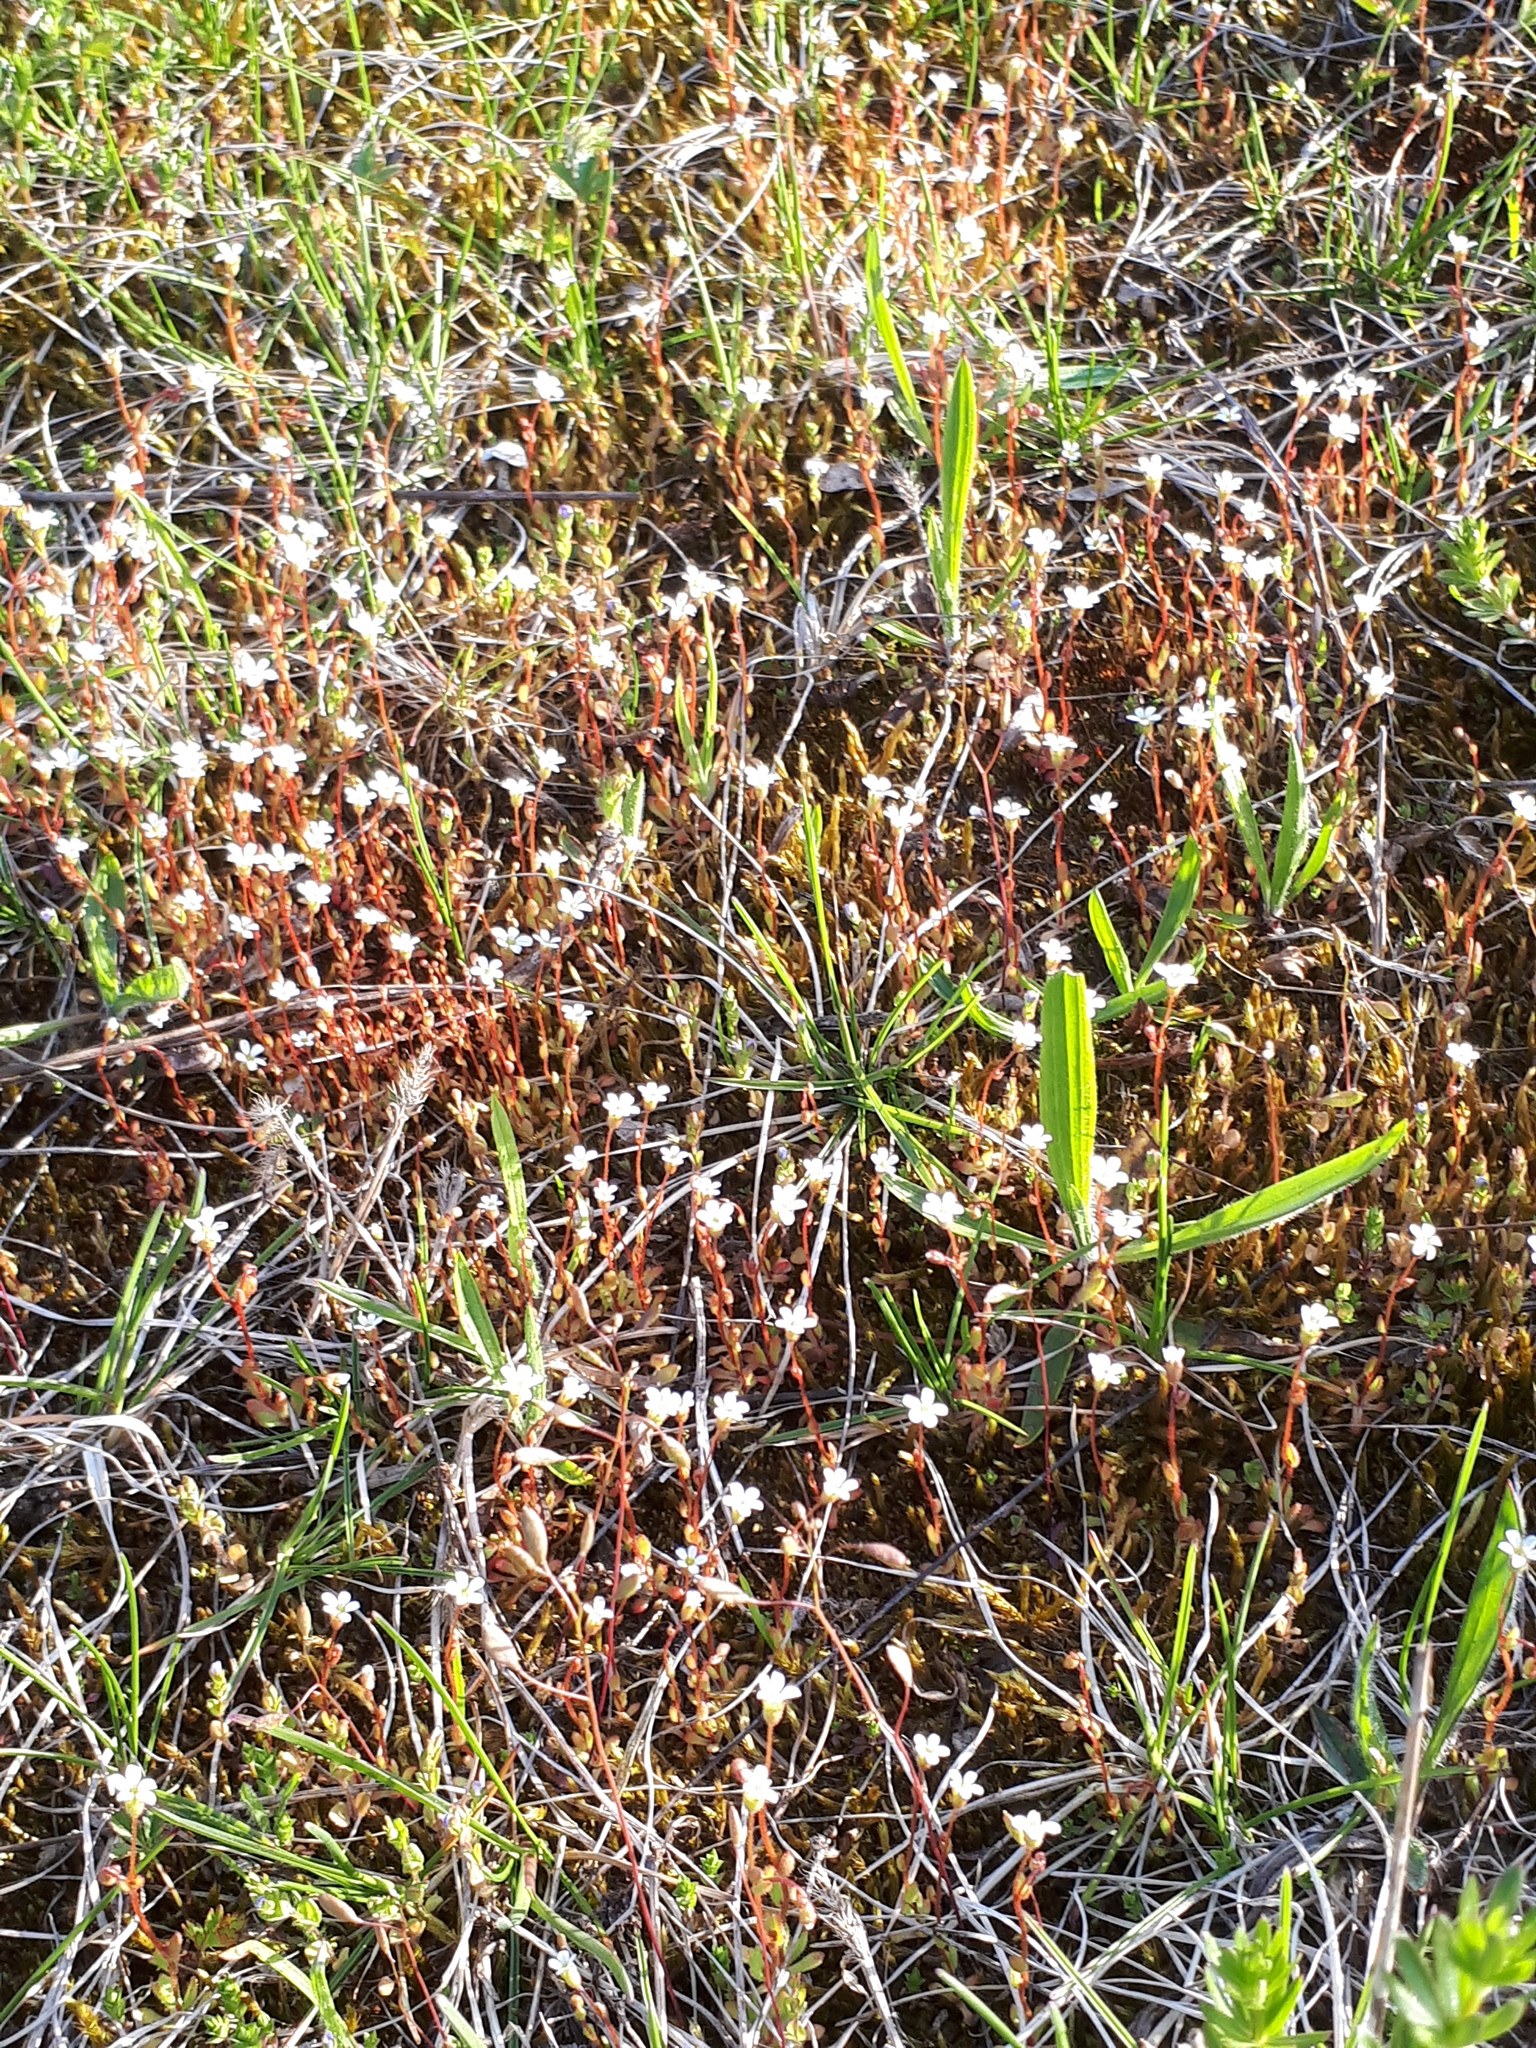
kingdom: Plantae
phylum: Tracheophyta
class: Magnoliopsida
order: Saxifragales
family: Saxifragaceae
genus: Saxifraga
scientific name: Saxifraga tridactylites
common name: Rue-leaved saxifrage
